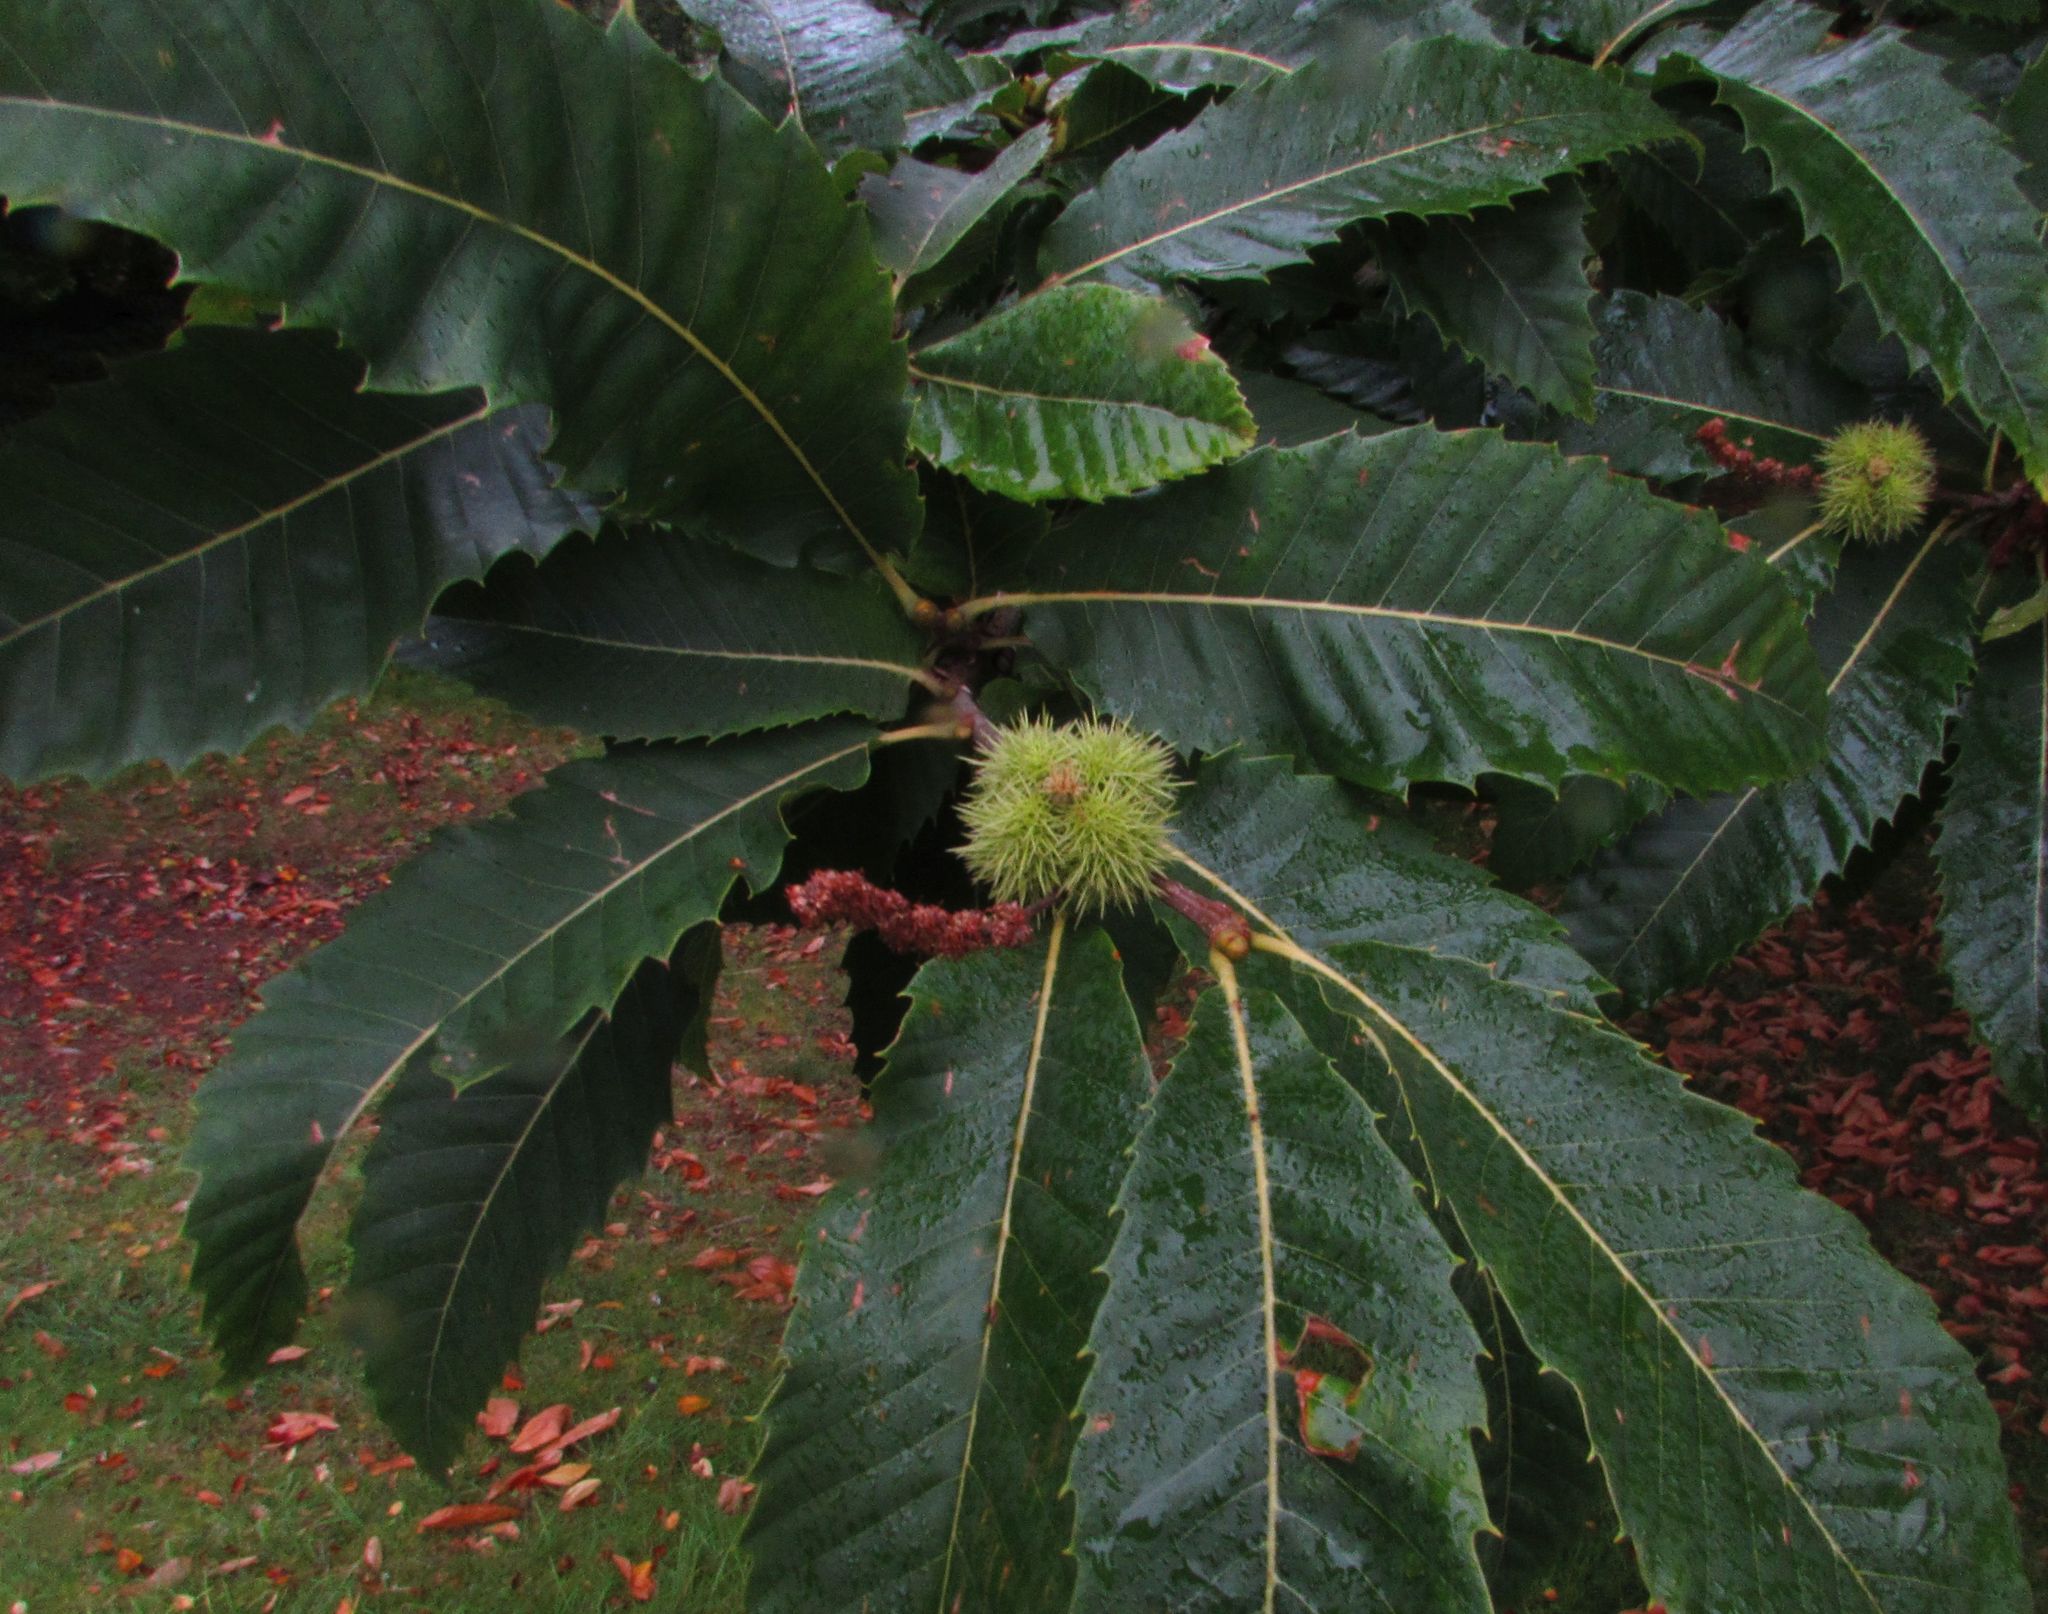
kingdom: Plantae
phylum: Tracheophyta
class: Magnoliopsida
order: Fagales
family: Fagaceae
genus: Castanea
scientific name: Castanea sativa
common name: Sweet chestnut
